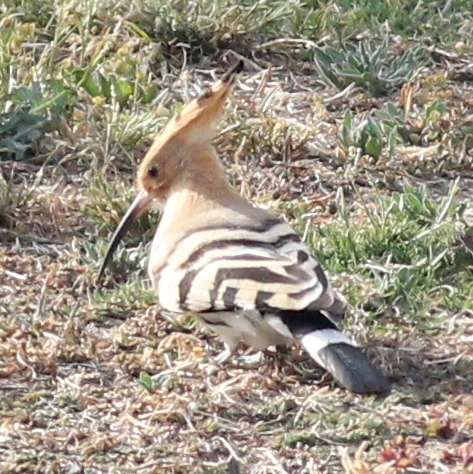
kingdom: Animalia
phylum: Chordata
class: Aves
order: Bucerotiformes
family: Upupidae
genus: Upupa
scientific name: Upupa epops
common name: Eurasian hoopoe
